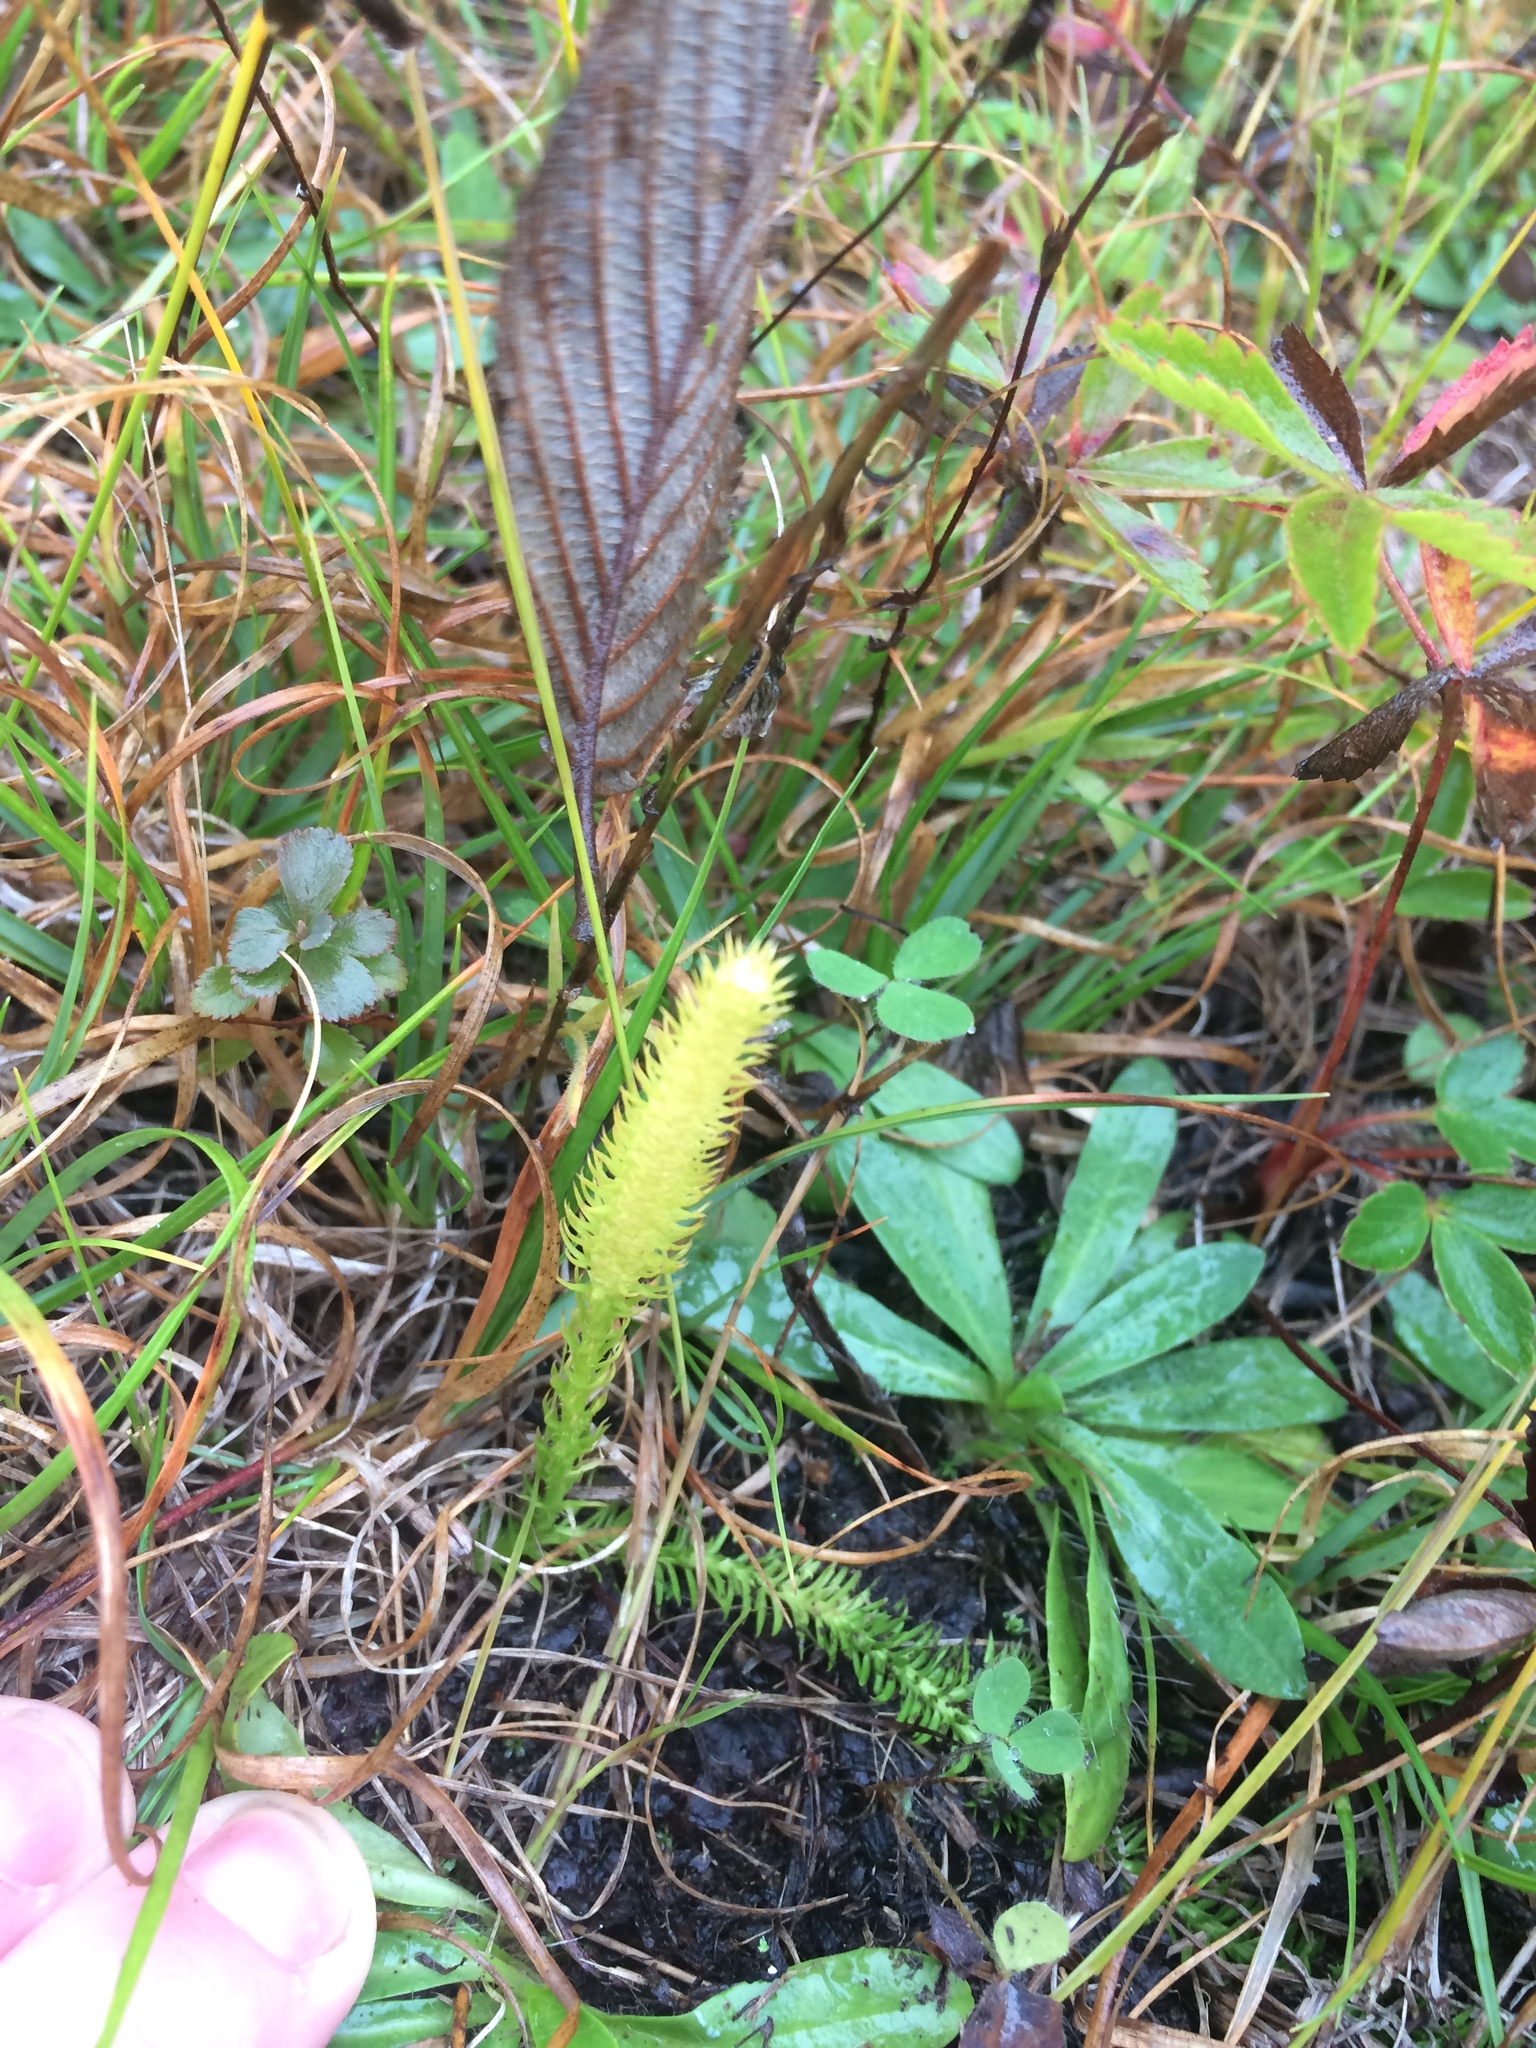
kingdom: Plantae
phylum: Tracheophyta
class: Lycopodiopsida
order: Lycopodiales
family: Lycopodiaceae
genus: Lycopodiella
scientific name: Lycopodiella inundata
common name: Marsh clubmoss
